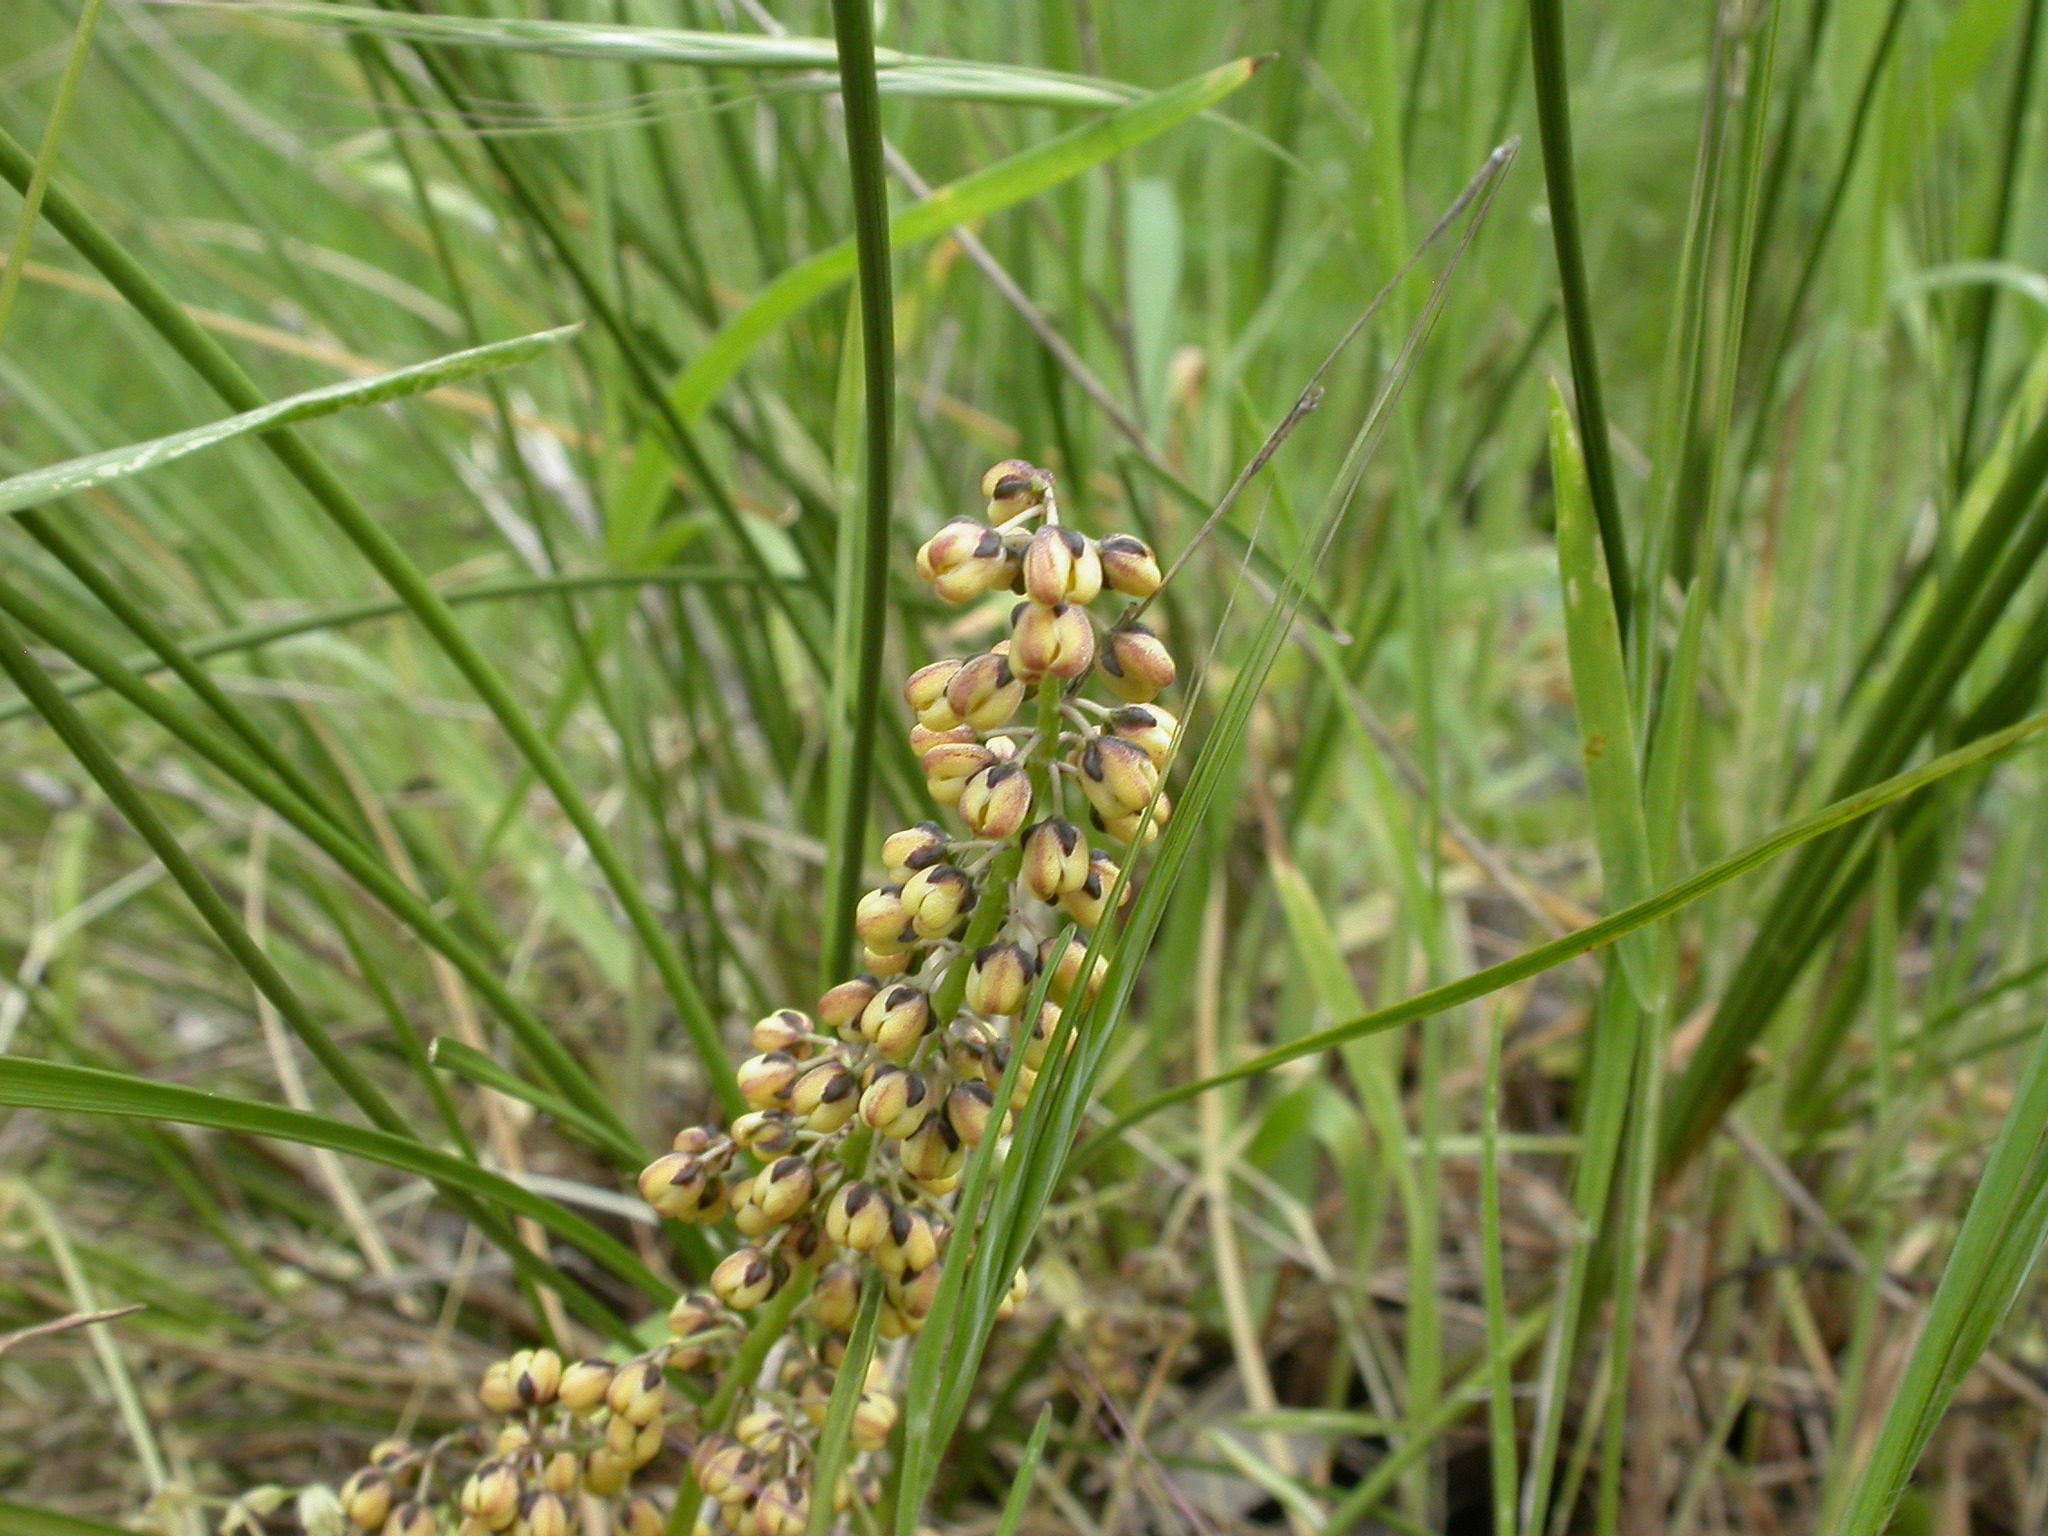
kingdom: Plantae
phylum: Tracheophyta
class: Liliopsida
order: Asparagales
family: Asparagaceae
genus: Lomandra
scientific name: Lomandra filiformis
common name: Wattle mat-rush
